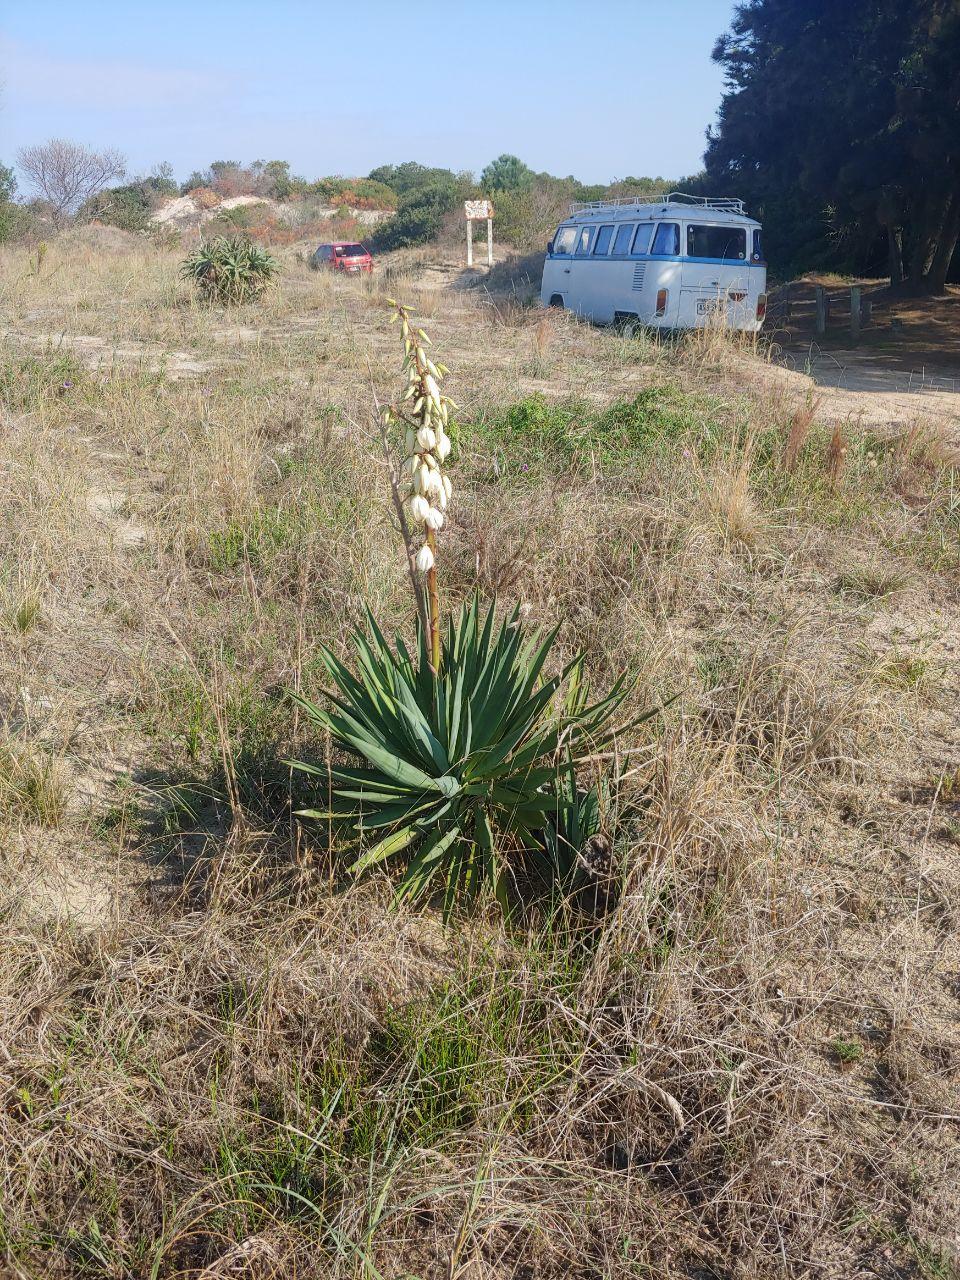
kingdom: Plantae
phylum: Tracheophyta
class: Liliopsida
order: Asparagales
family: Asparagaceae
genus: Yucca
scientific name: Yucca gloriosa
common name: Spanish-dagger
